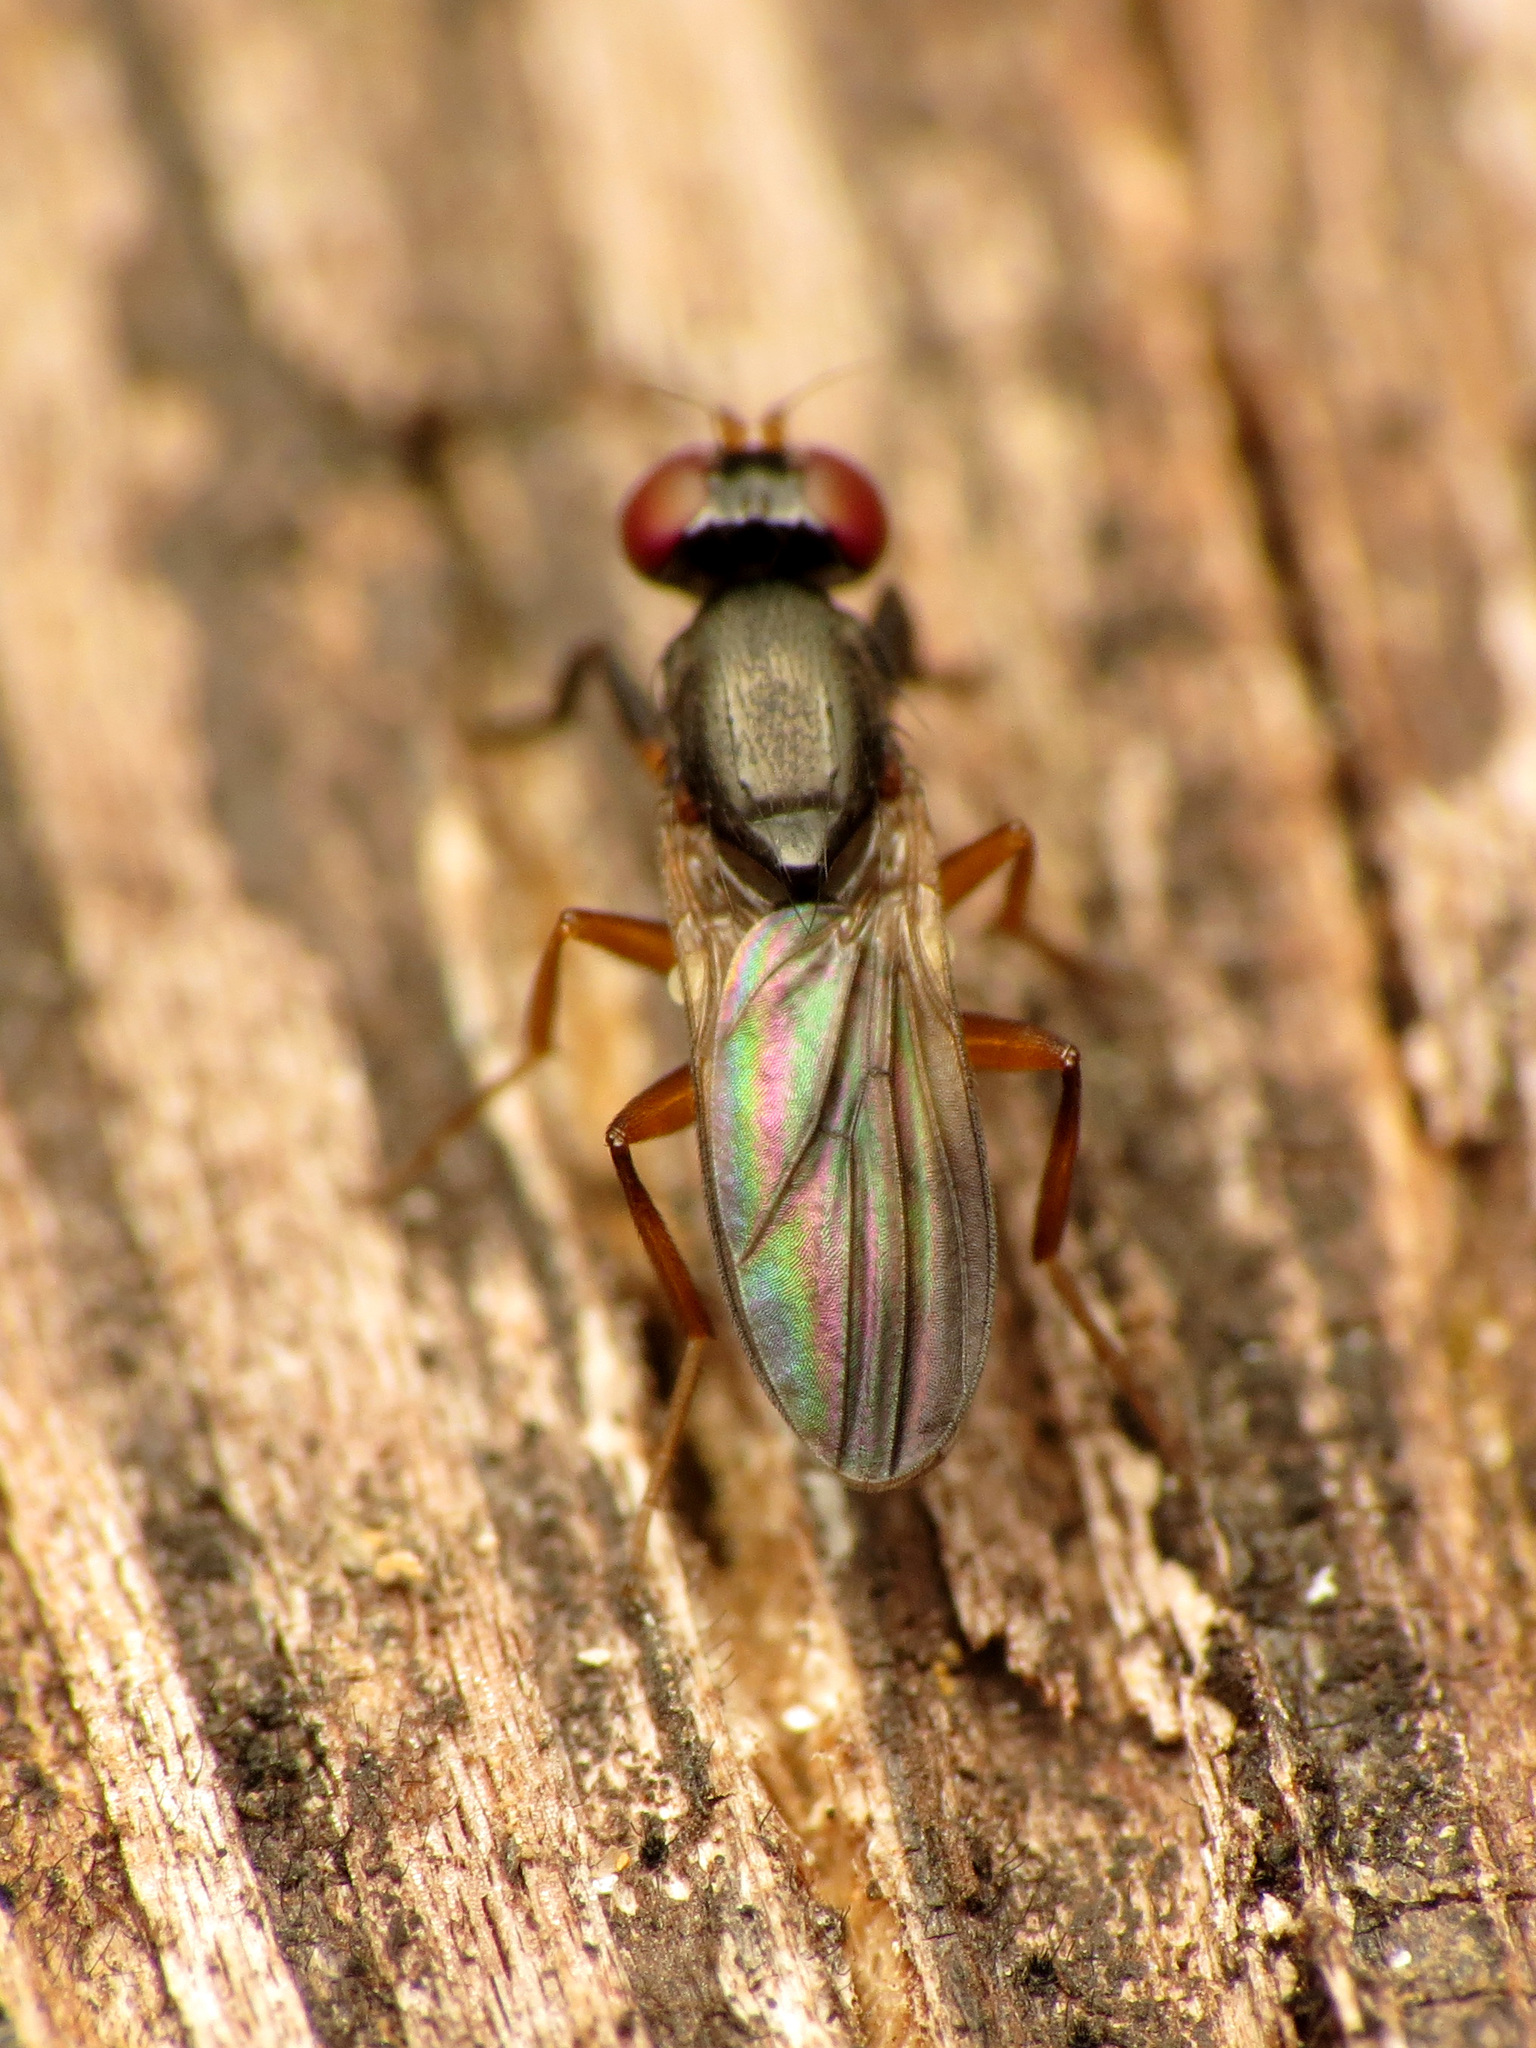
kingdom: Animalia
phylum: Arthropoda
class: Insecta
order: Diptera
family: Clusiidae
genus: Heteromeringia
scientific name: Heteromeringia nitida
